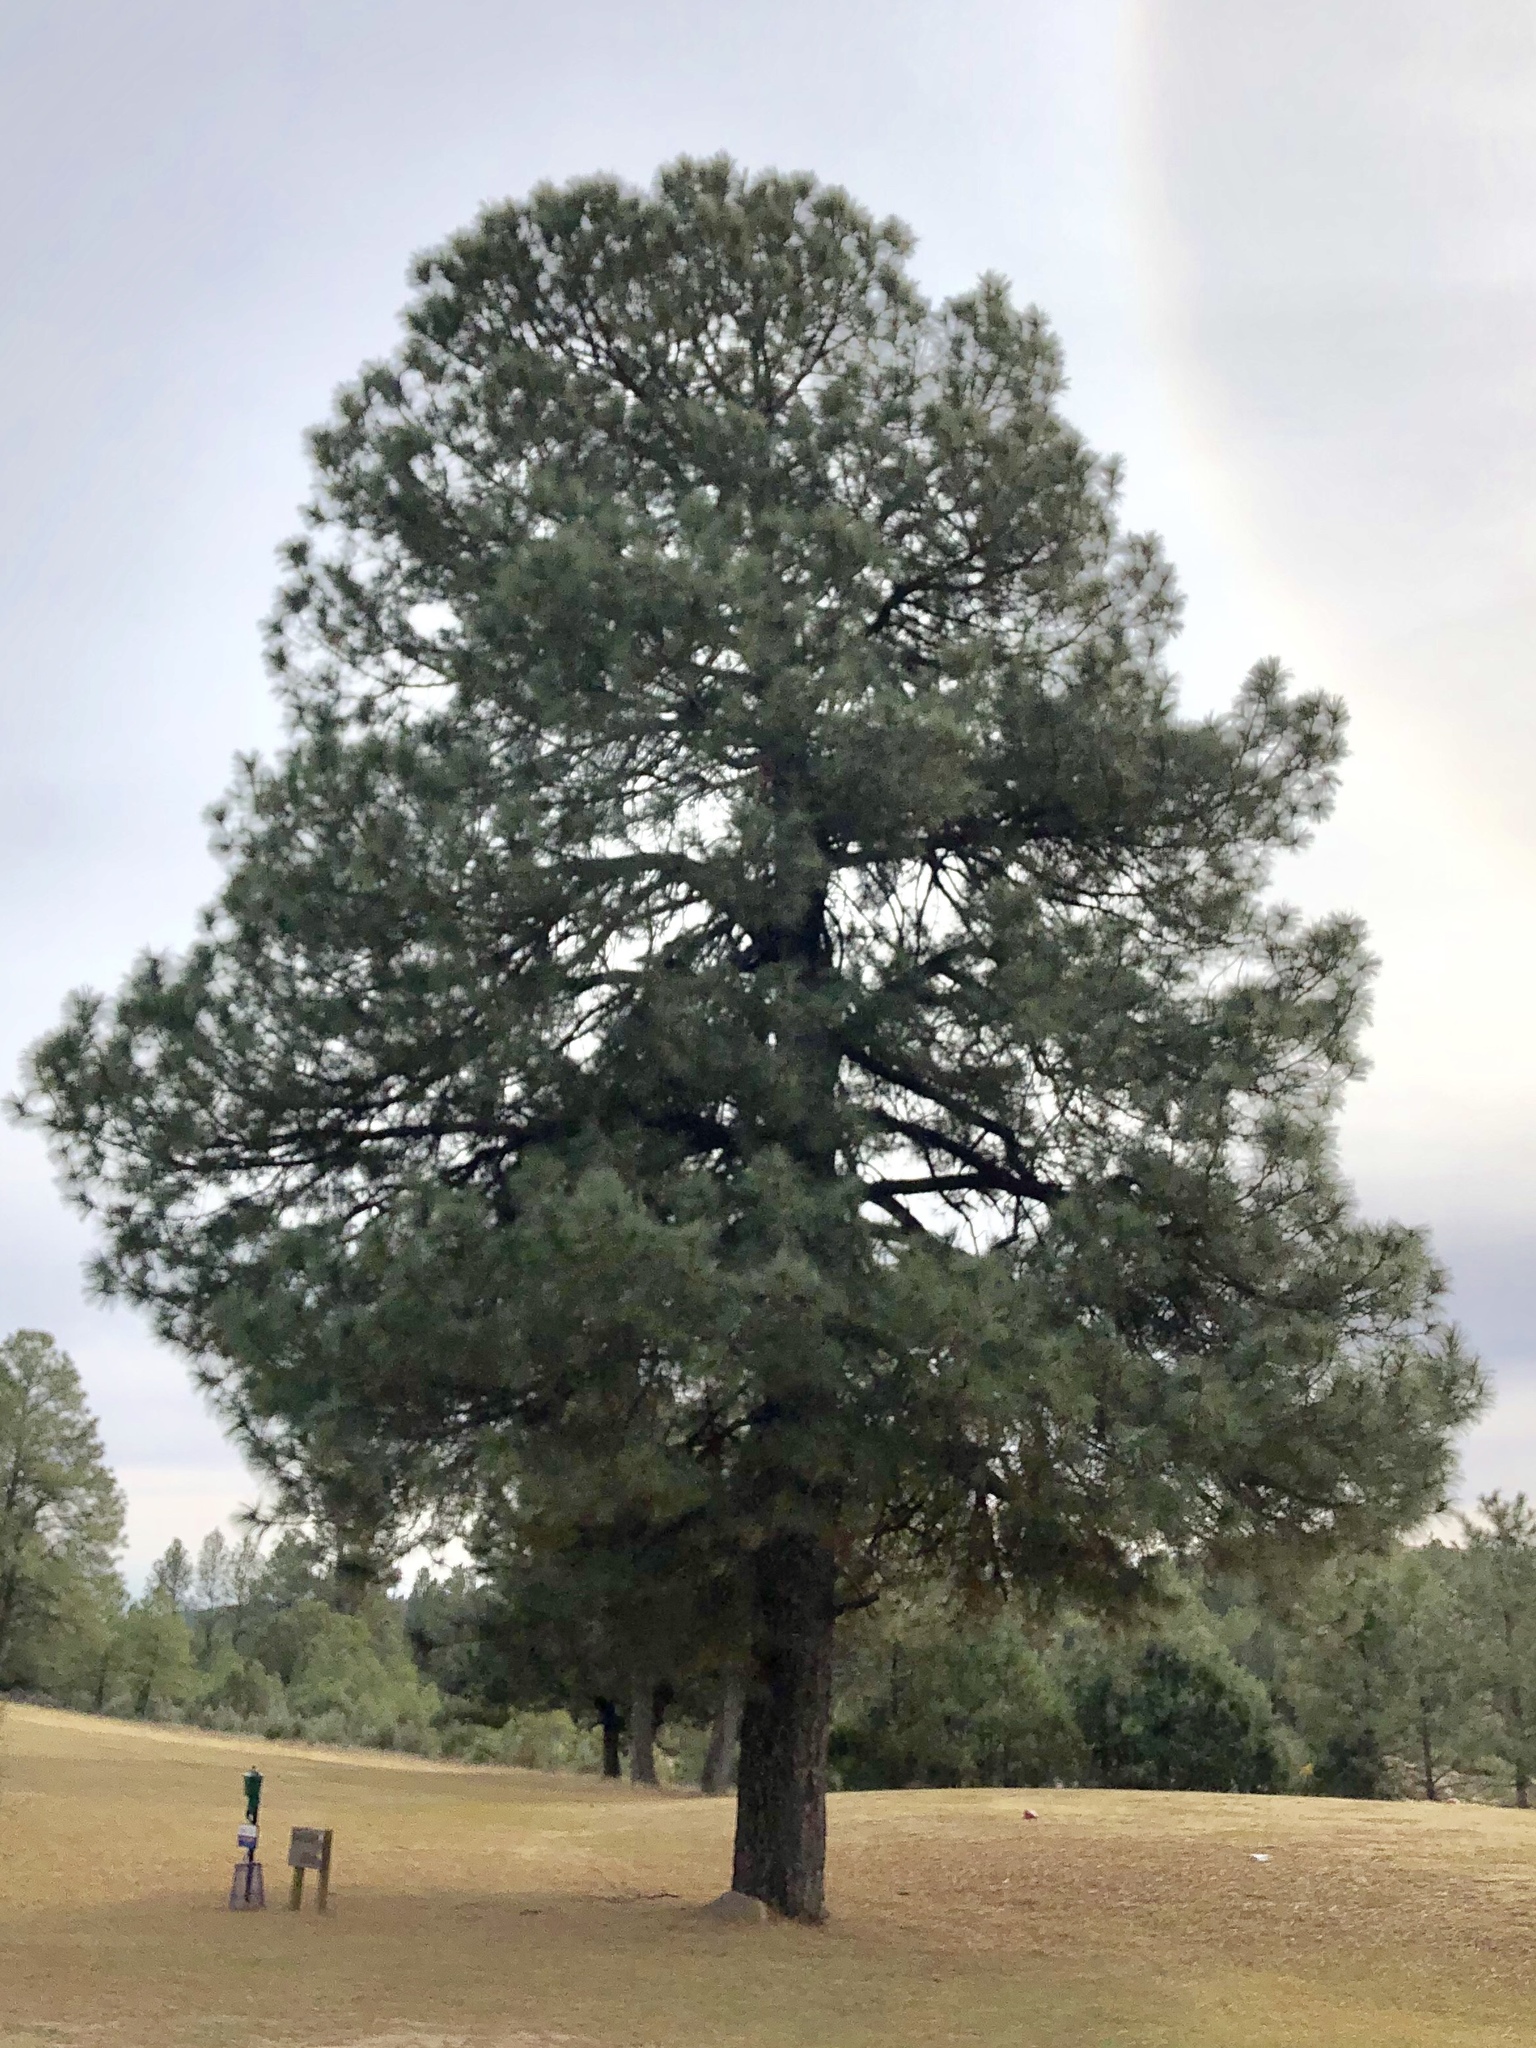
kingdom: Plantae
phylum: Tracheophyta
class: Pinopsida
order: Pinales
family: Pinaceae
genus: Pinus
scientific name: Pinus ponderosa
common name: Western yellow-pine
